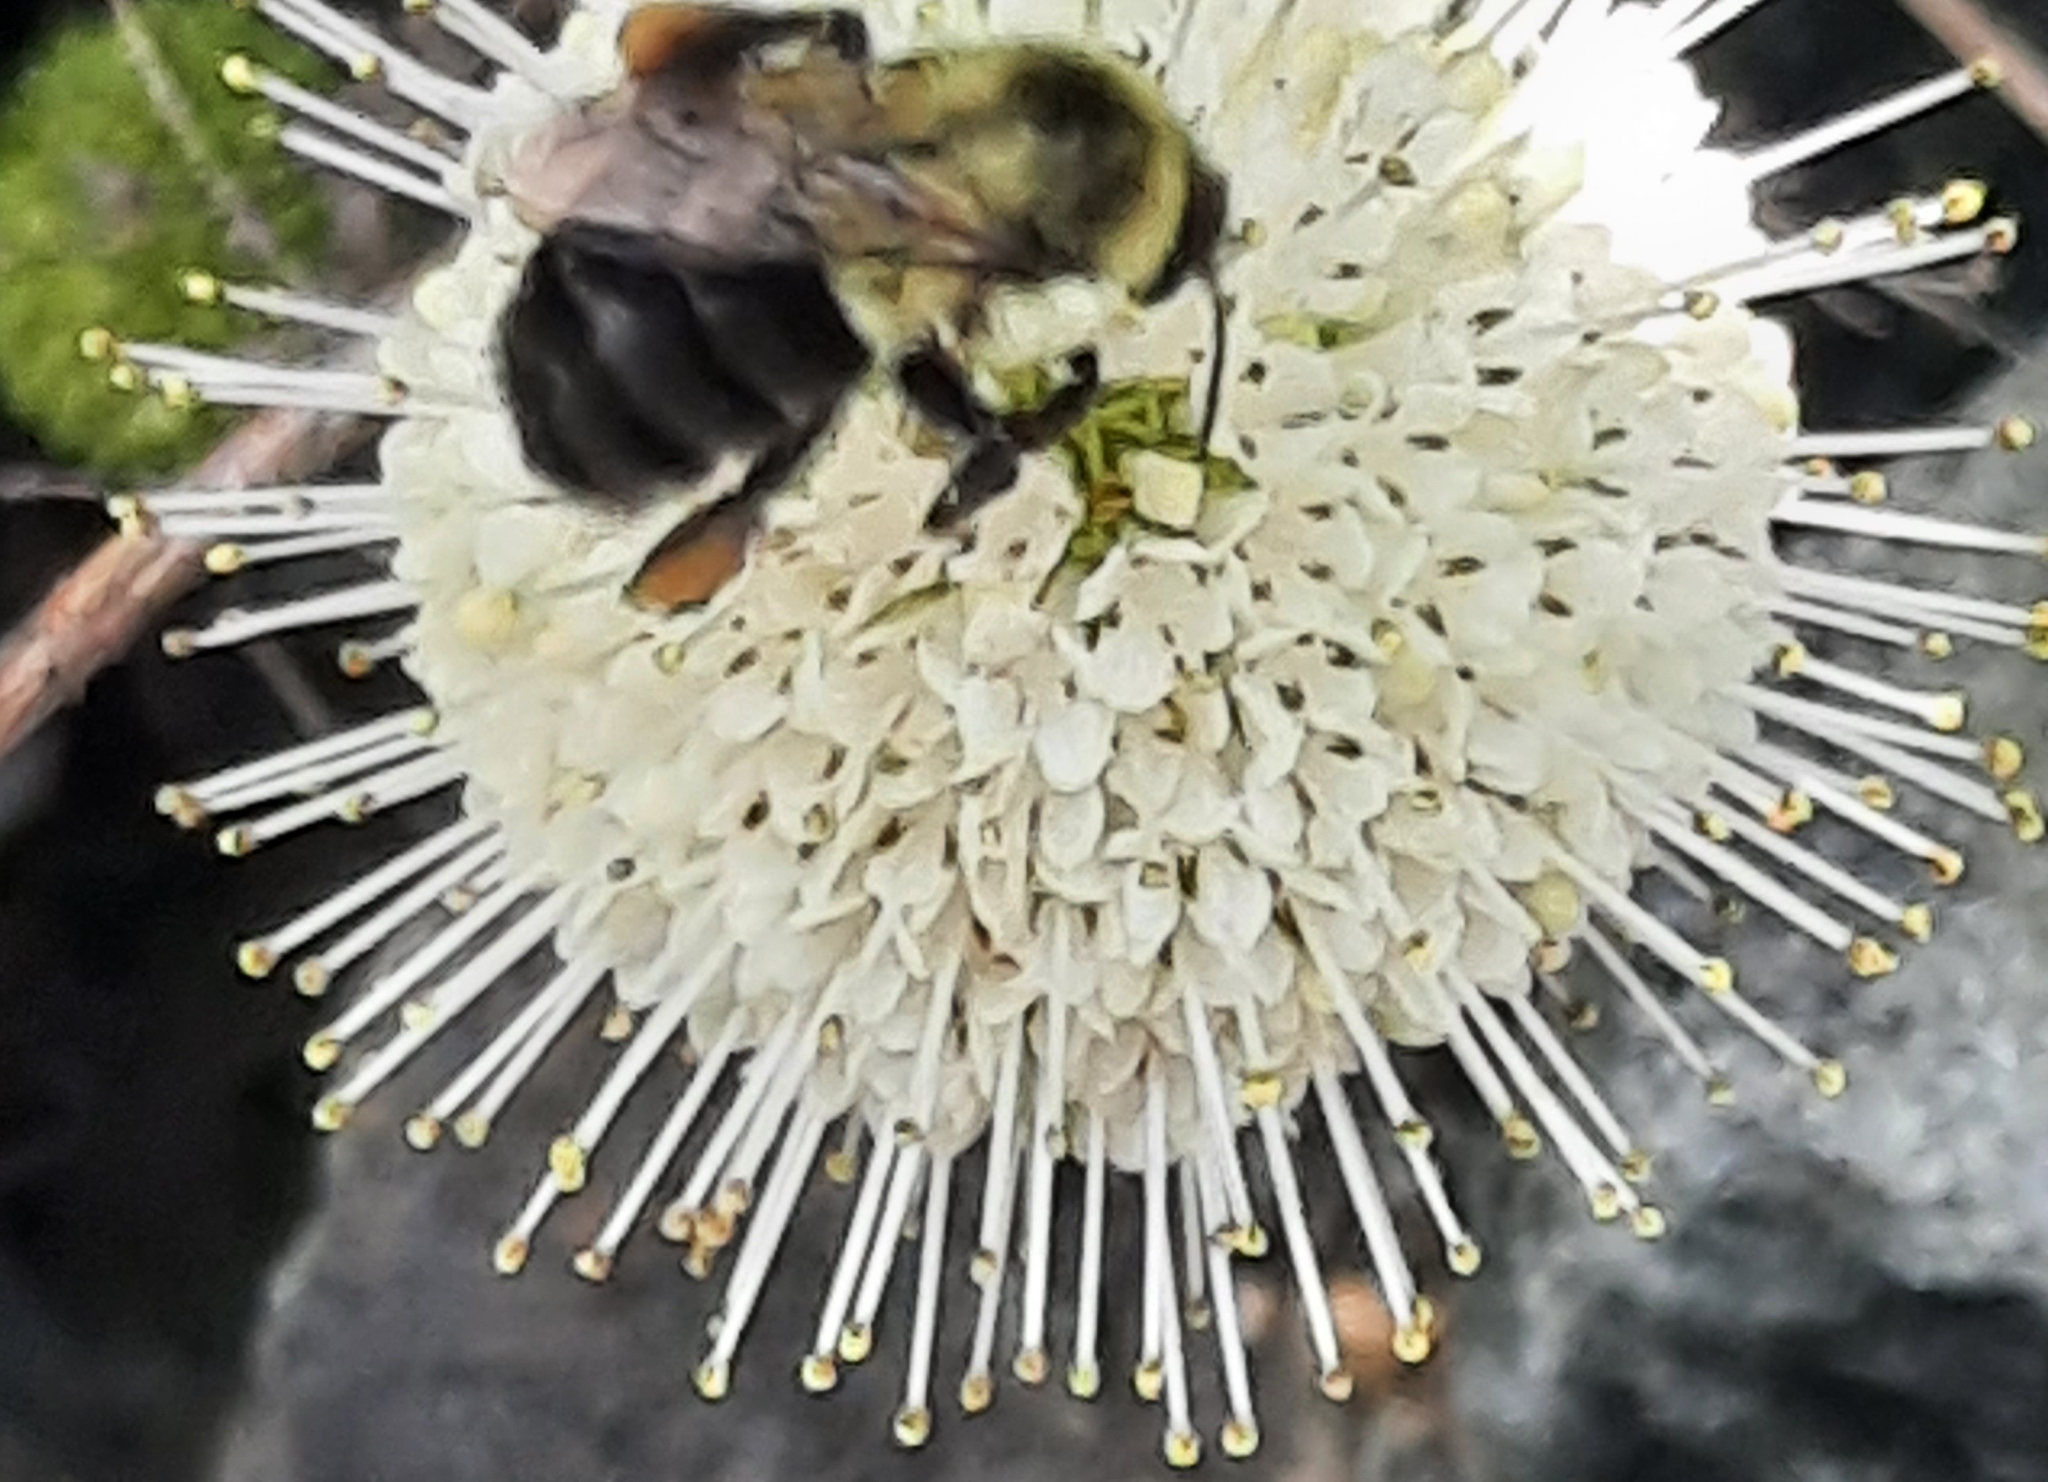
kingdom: Animalia
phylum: Arthropoda
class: Insecta
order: Hymenoptera
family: Apidae
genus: Bombus
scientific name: Bombus impatiens
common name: Common eastern bumble bee
